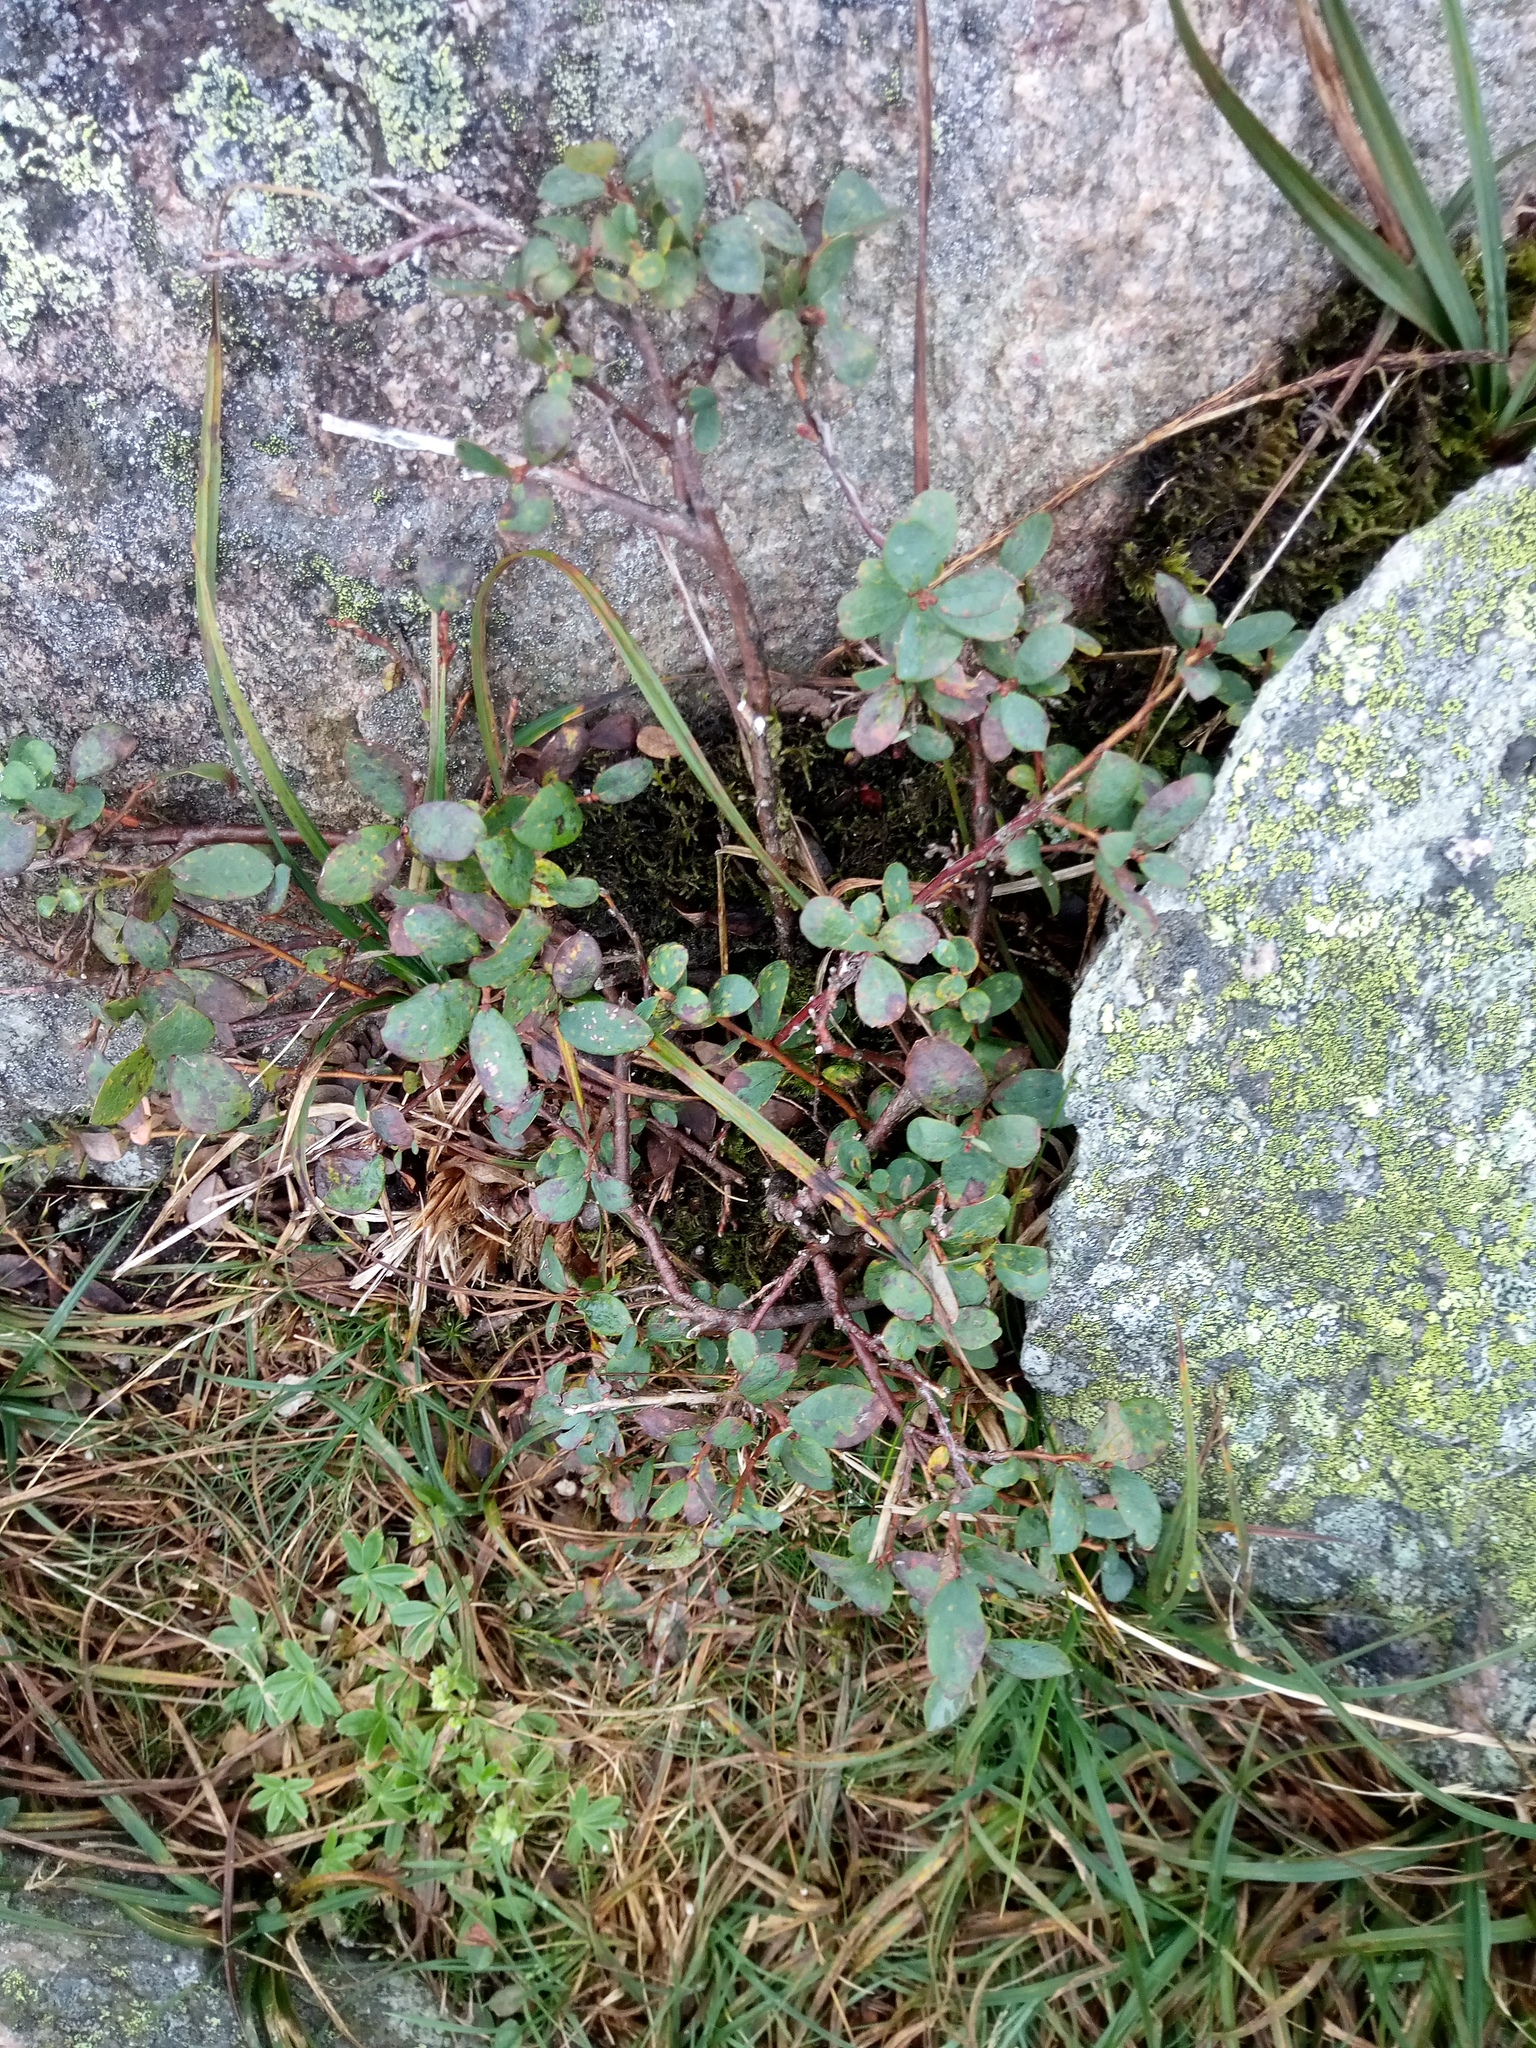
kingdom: Plantae
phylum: Tracheophyta
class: Magnoliopsida
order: Ericales
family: Ericaceae
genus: Vaccinium
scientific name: Vaccinium uliginosum
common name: Bog bilberry
